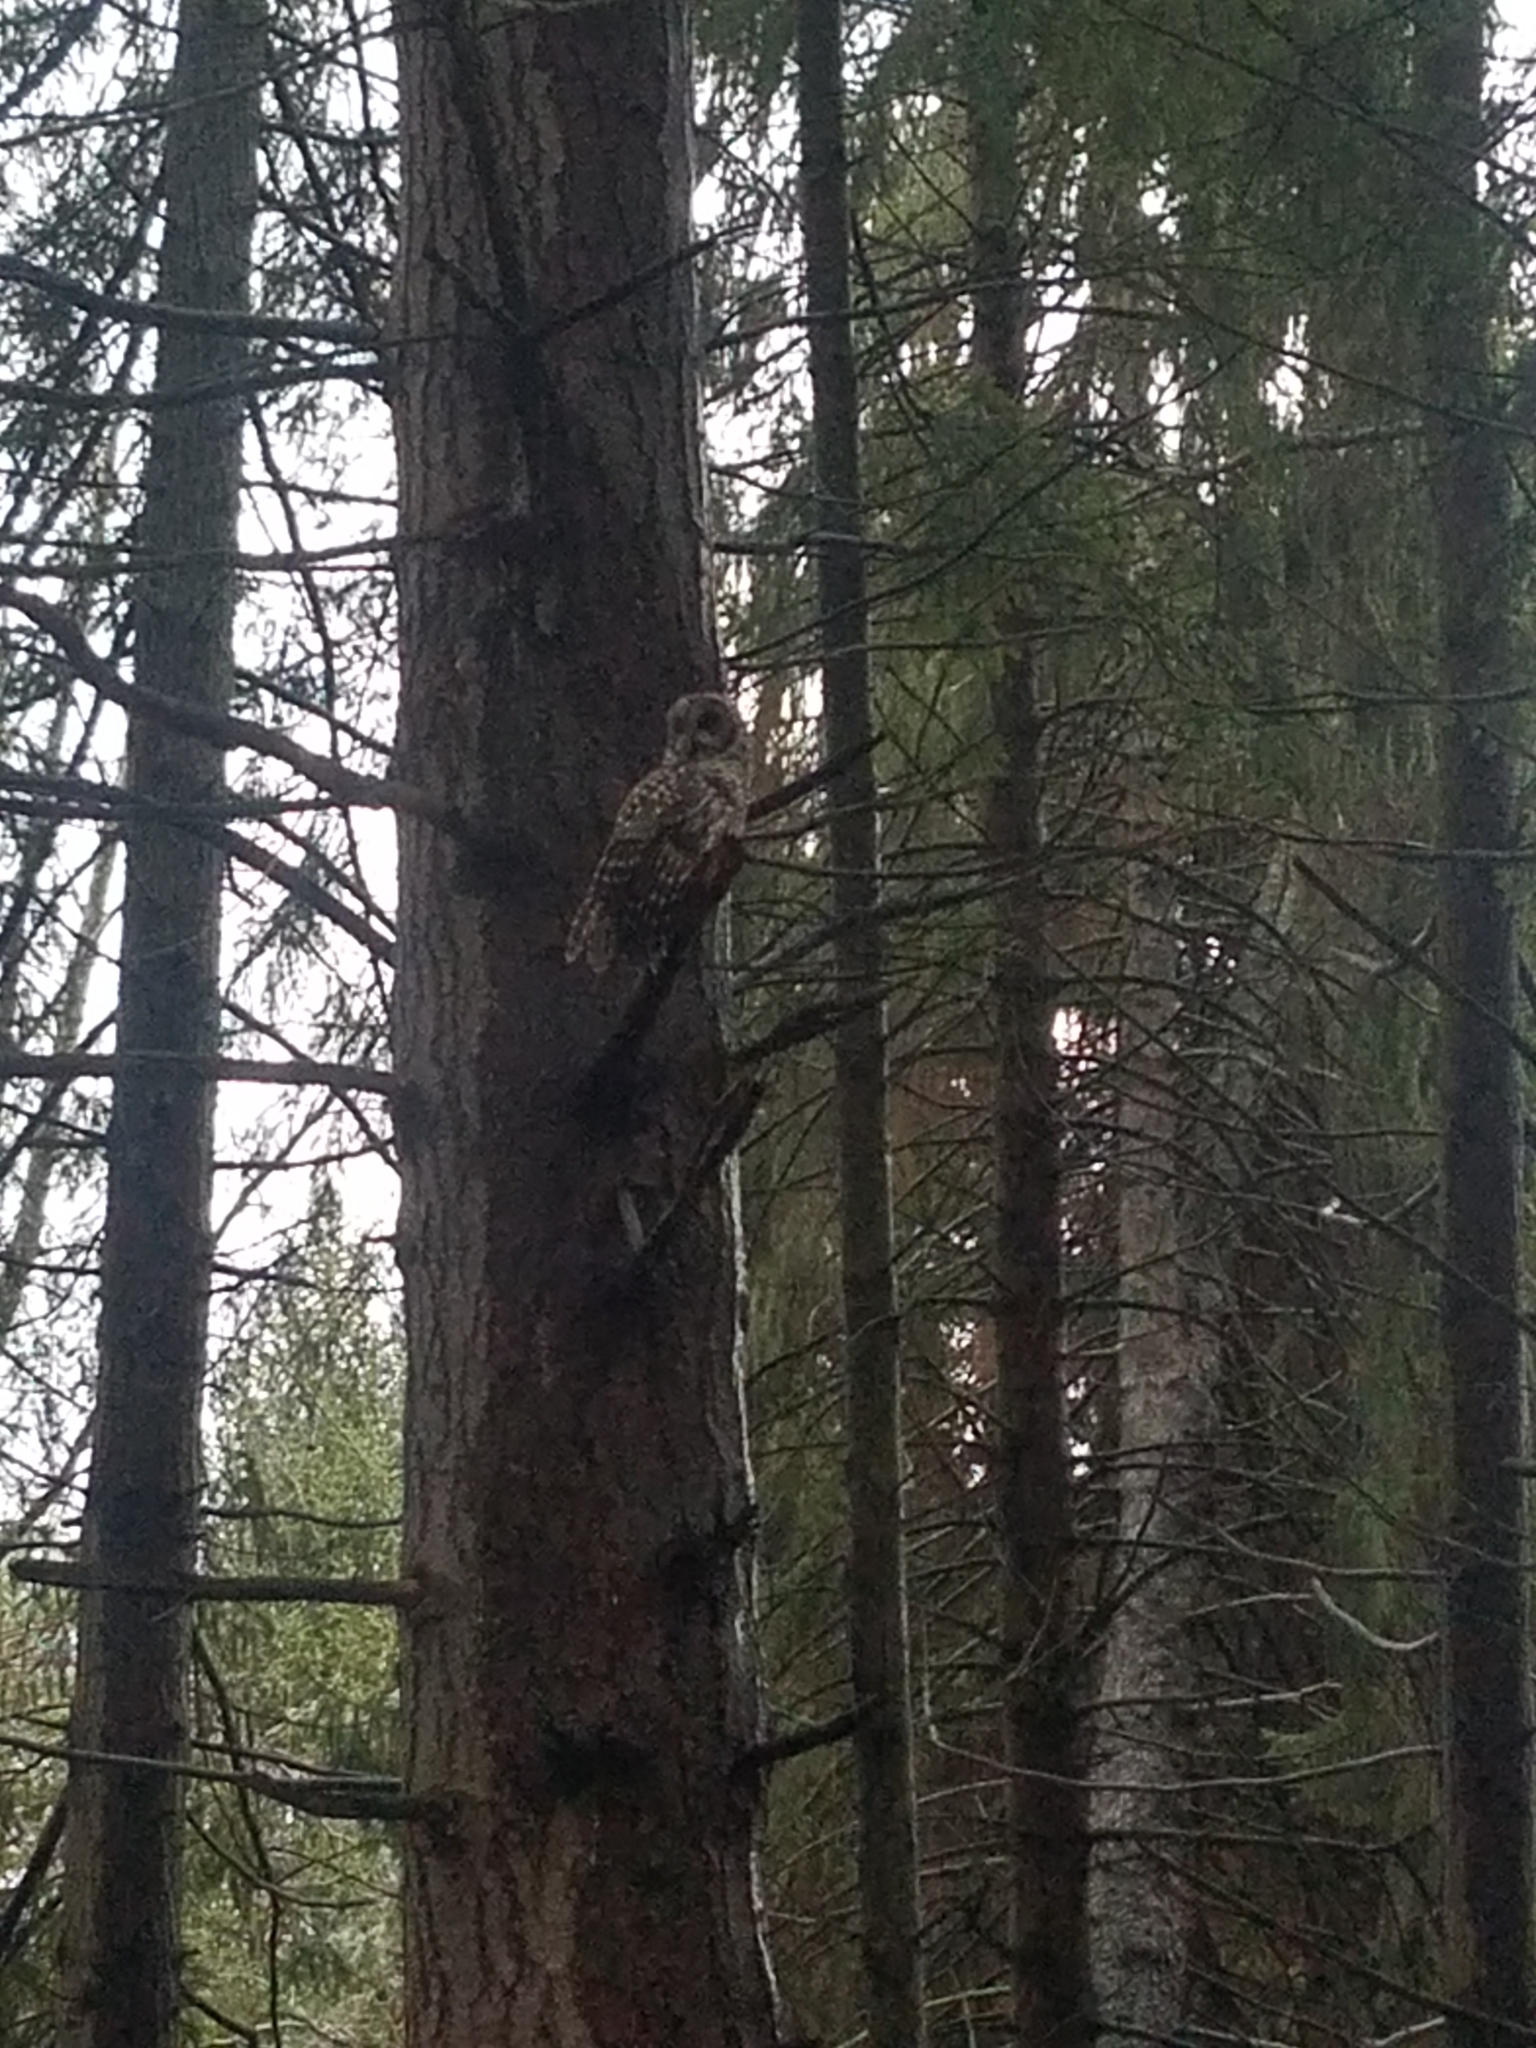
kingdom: Animalia
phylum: Chordata
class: Aves
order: Strigiformes
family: Strigidae
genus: Strix
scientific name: Strix varia
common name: Barred owl
